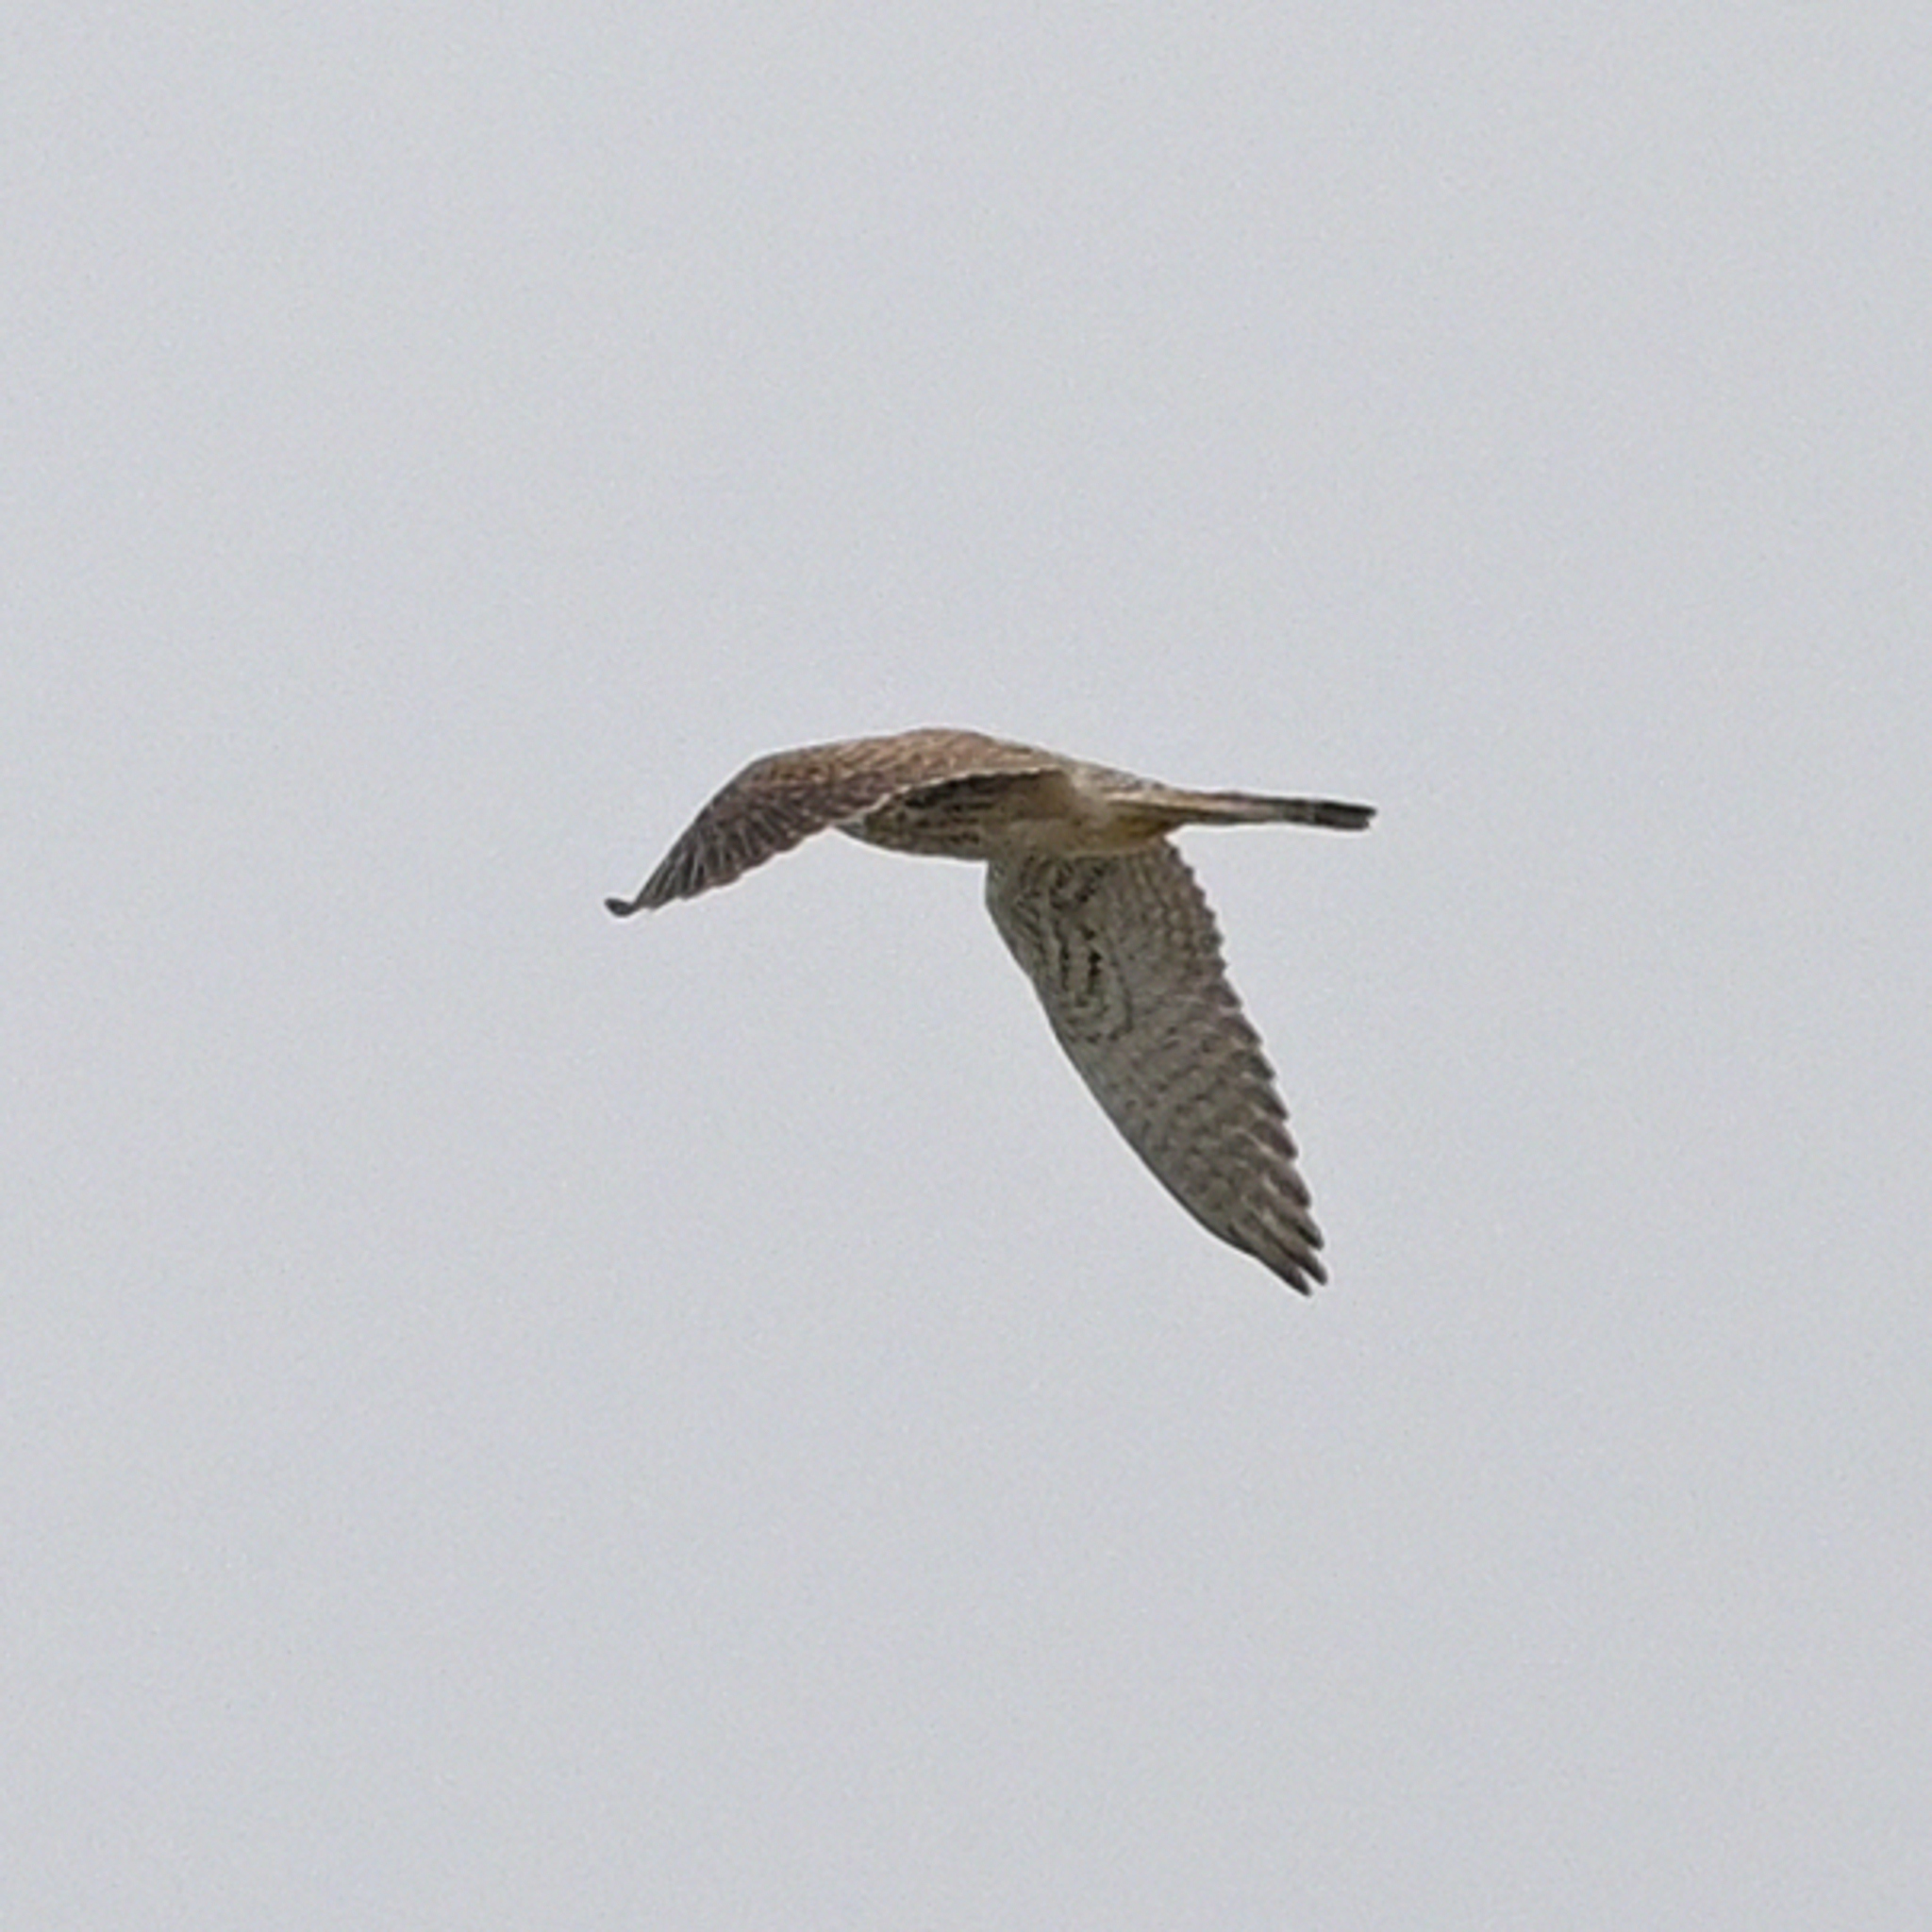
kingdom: Animalia
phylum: Chordata
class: Aves
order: Falconiformes
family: Falconidae
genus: Falco
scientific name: Falco tinnunculus
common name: Common kestrel
